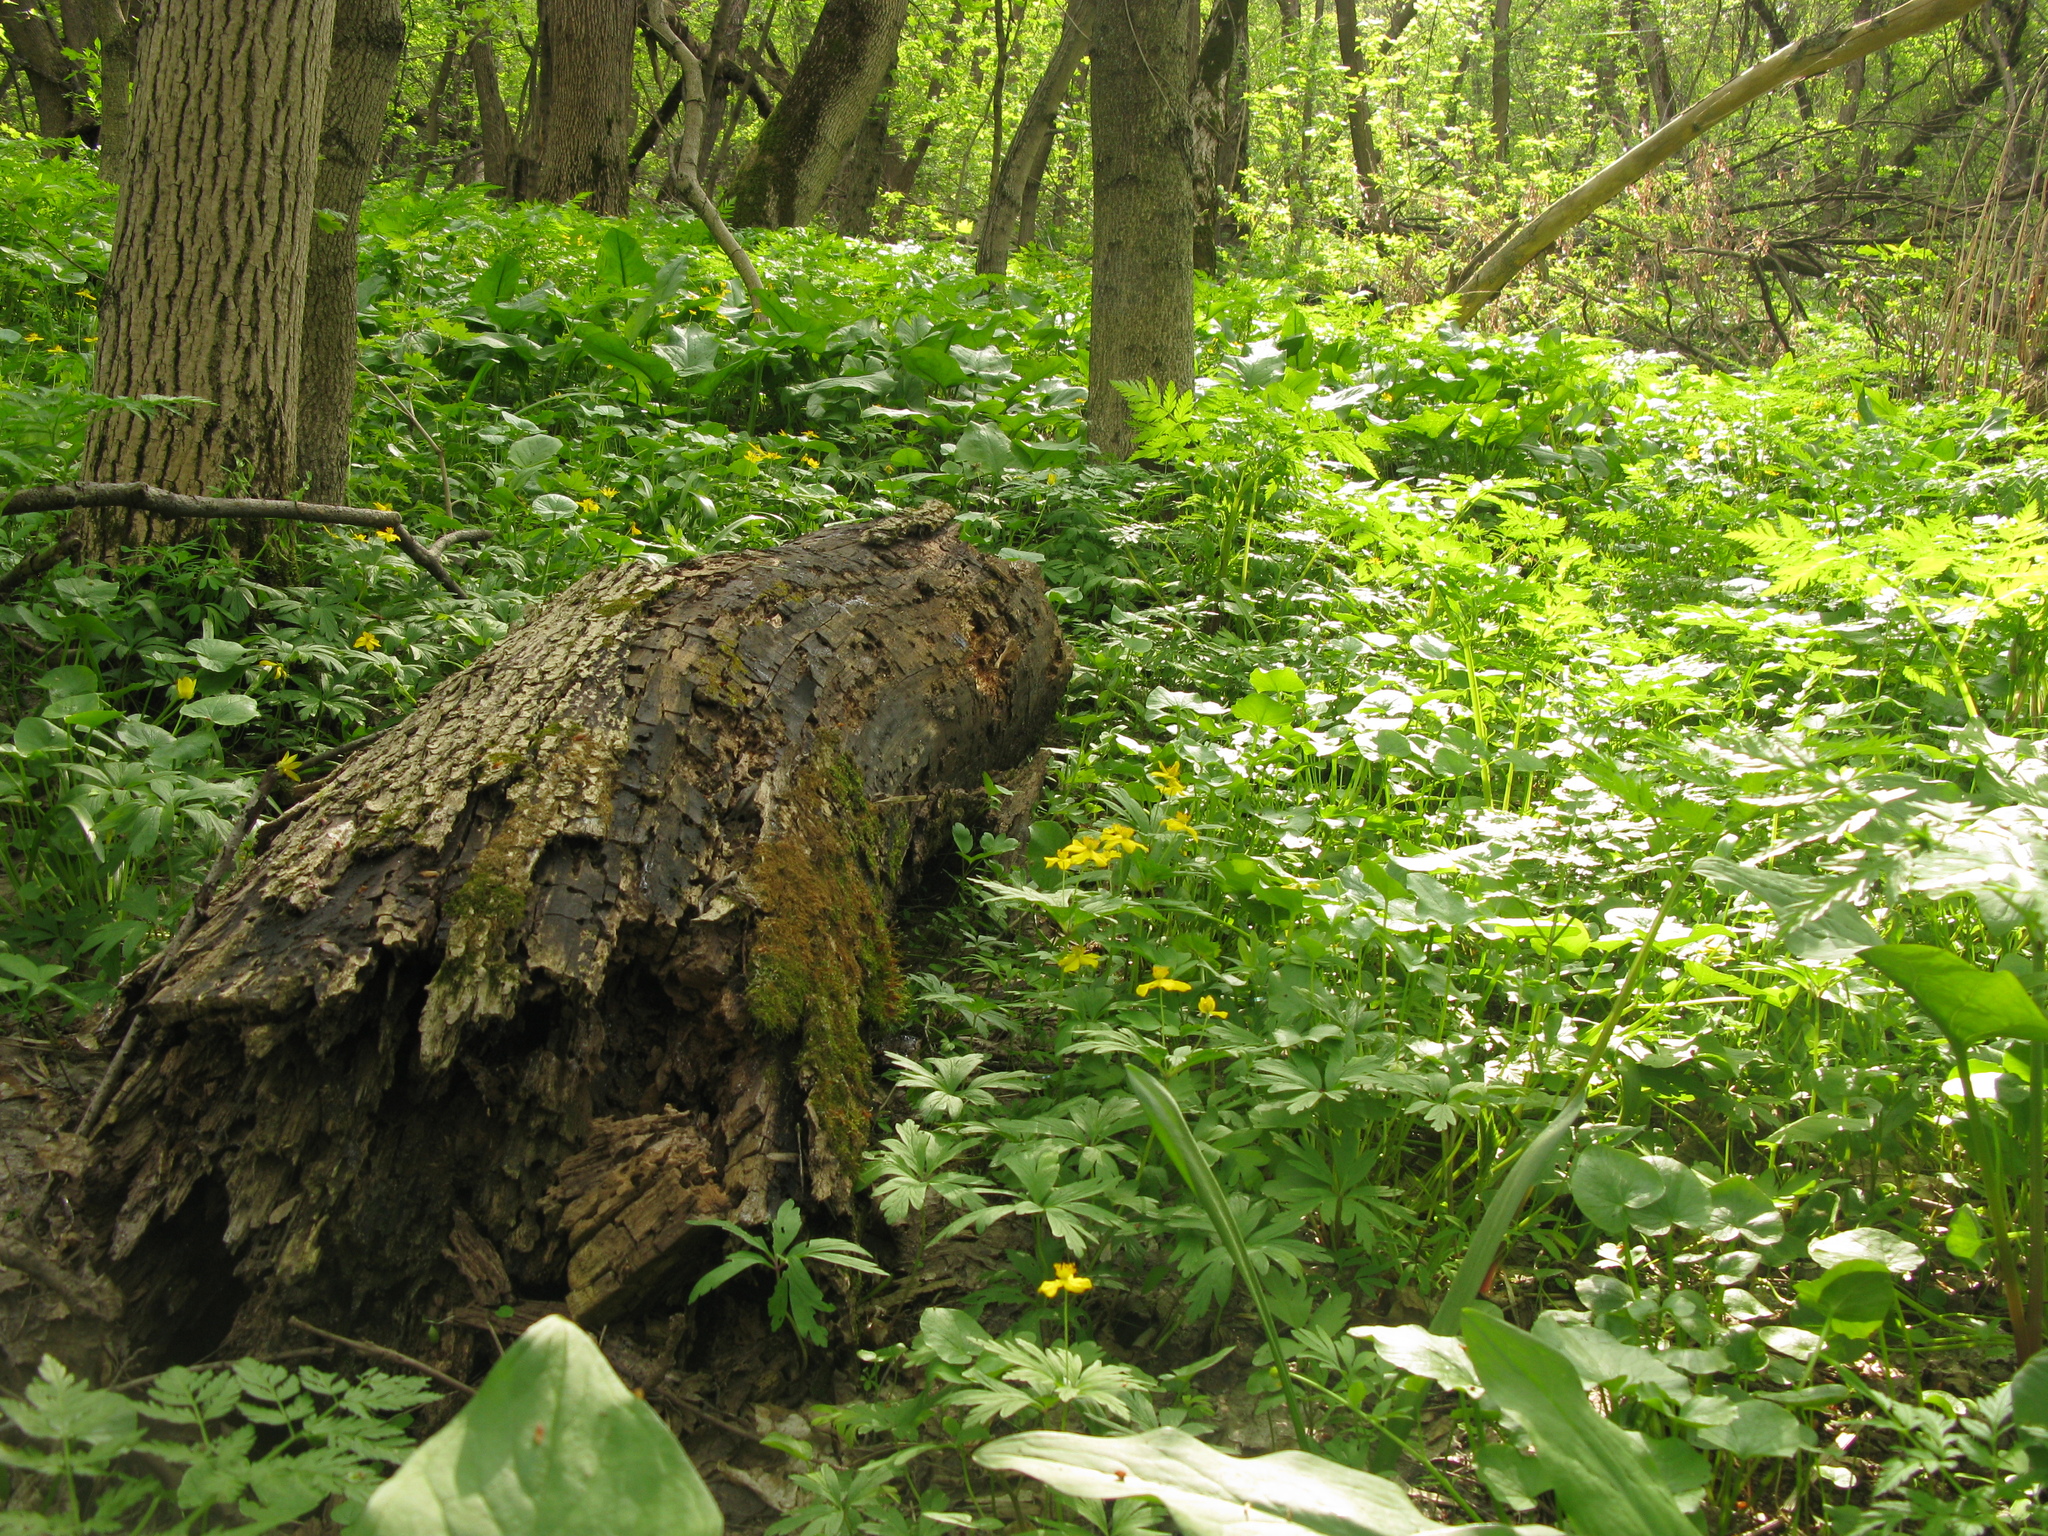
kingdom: Plantae
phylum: Tracheophyta
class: Magnoliopsida
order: Ranunculales
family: Ranunculaceae
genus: Anemone
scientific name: Anemone ranunculoides
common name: Yellow anemone
